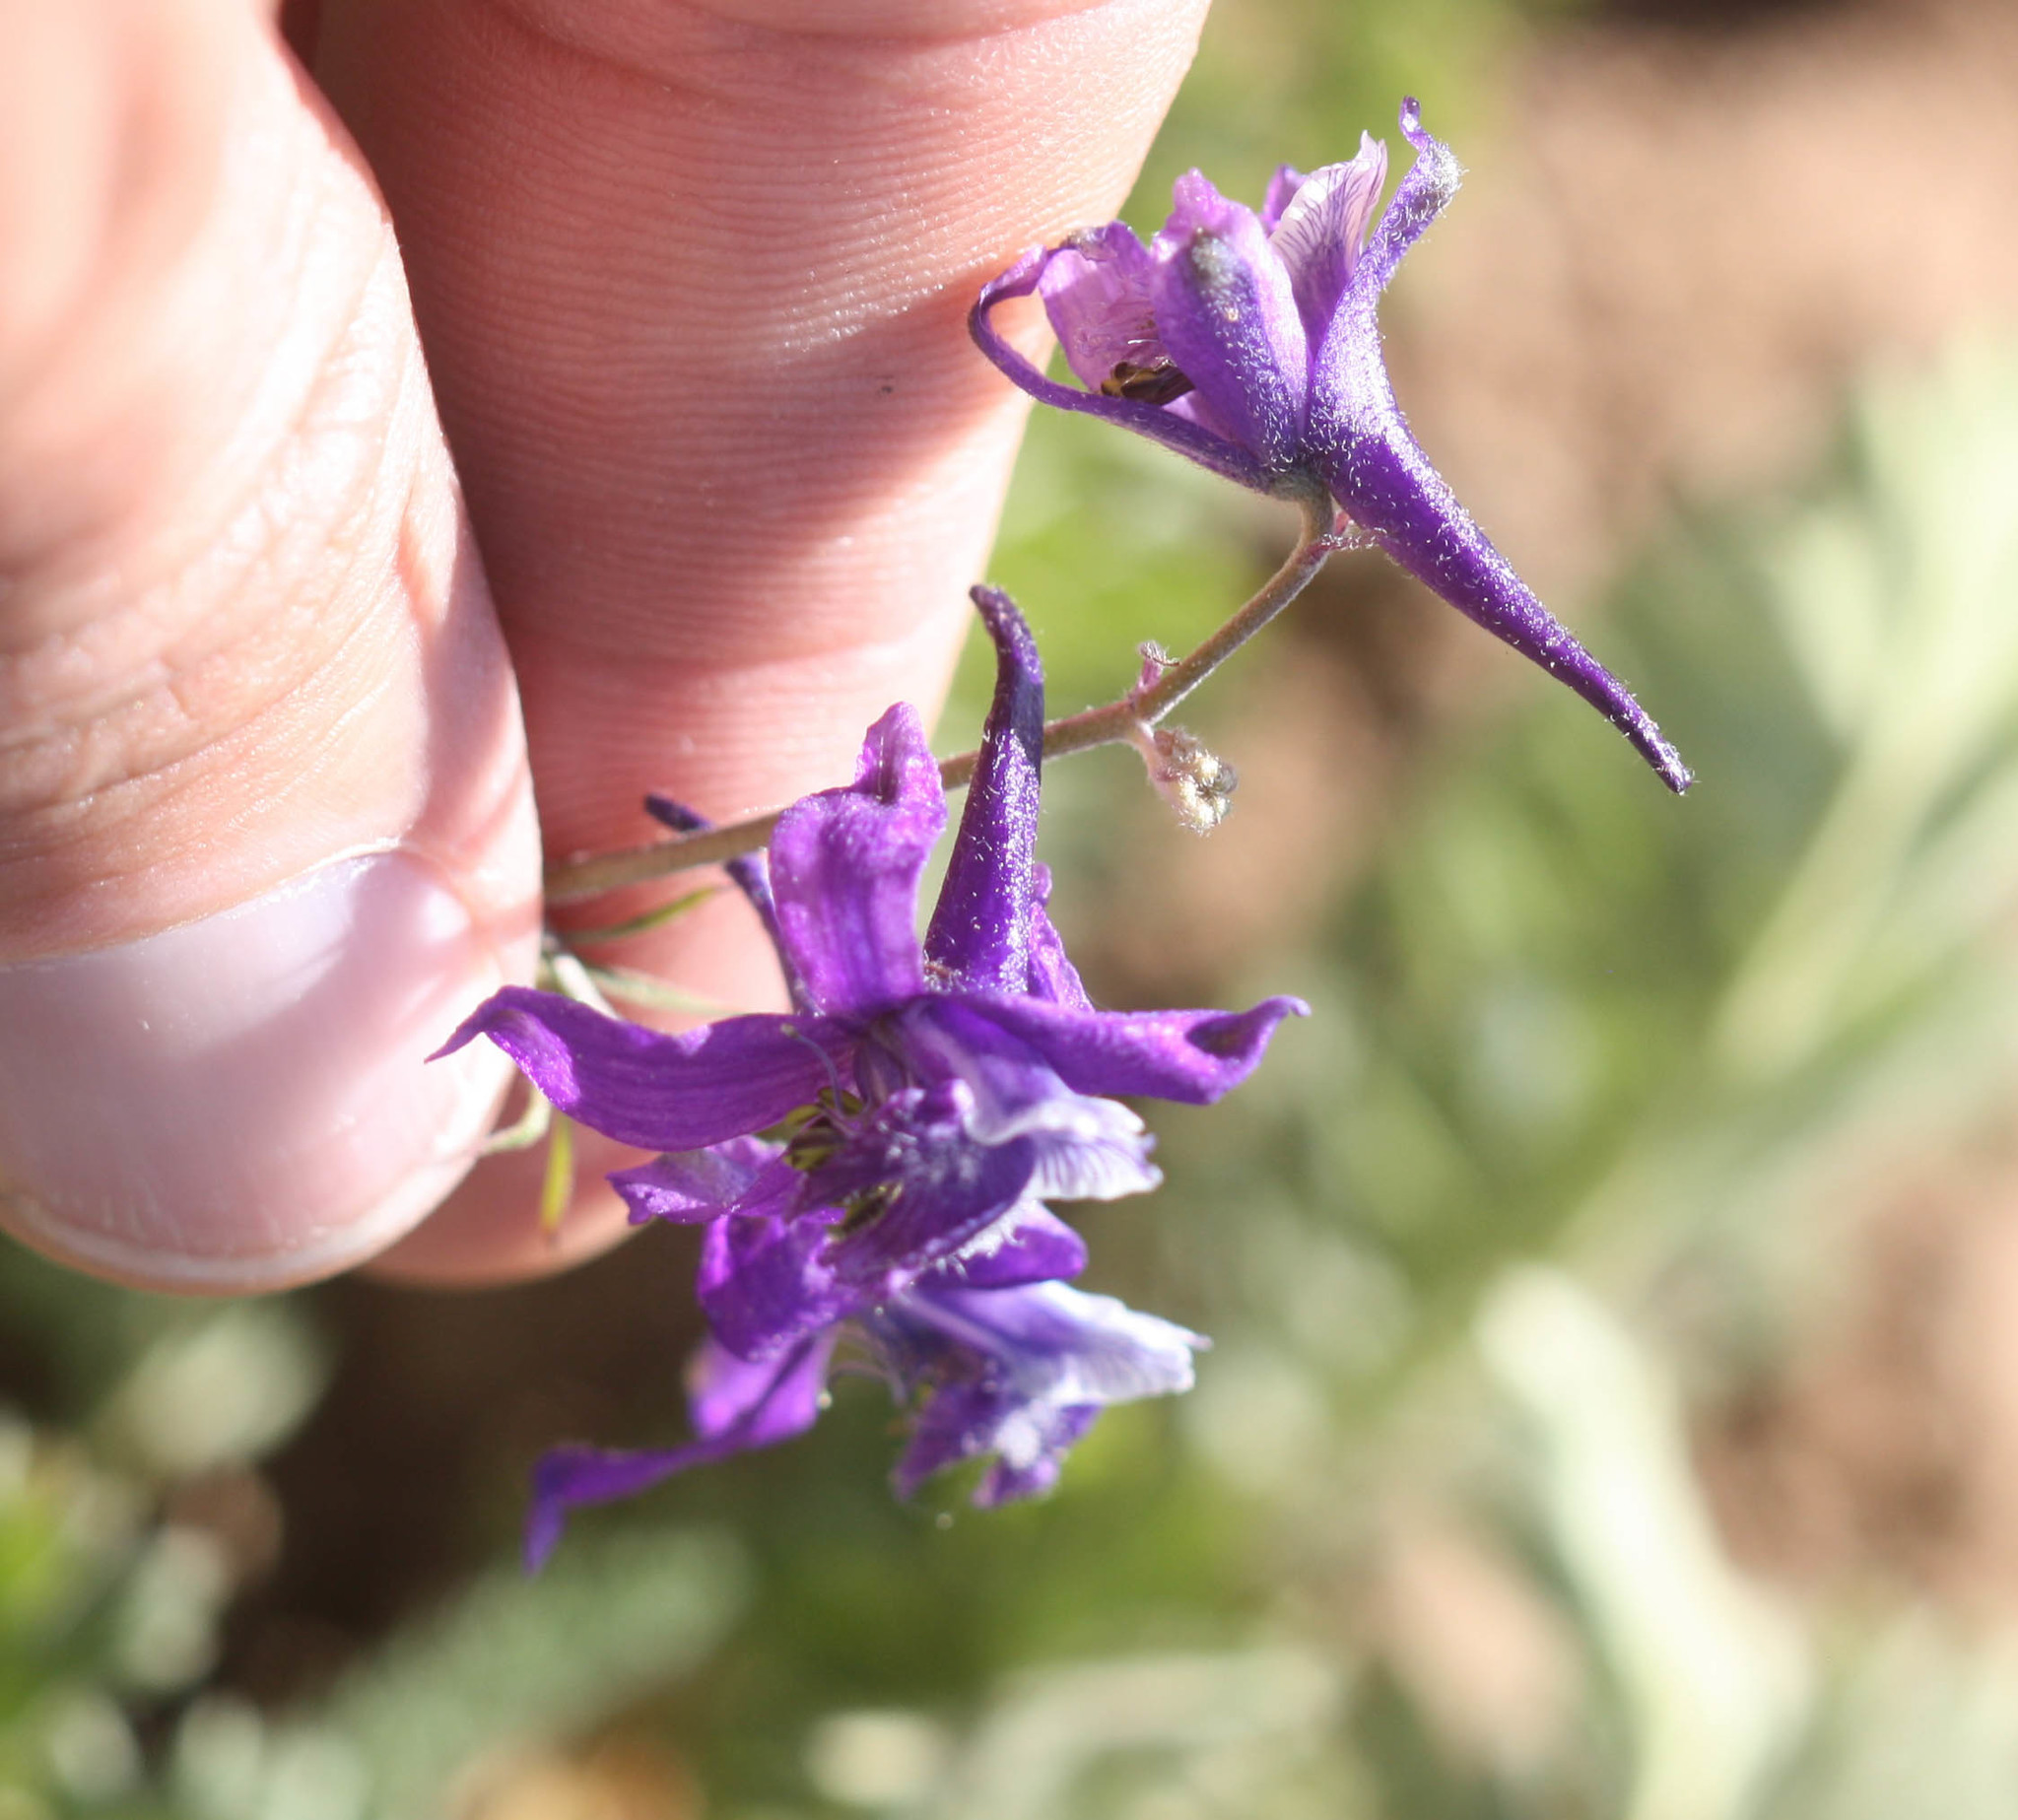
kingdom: Plantae
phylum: Tracheophyta
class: Magnoliopsida
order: Ranunculales
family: Ranunculaceae
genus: Delphinium
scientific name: Delphinium nuttallianum
